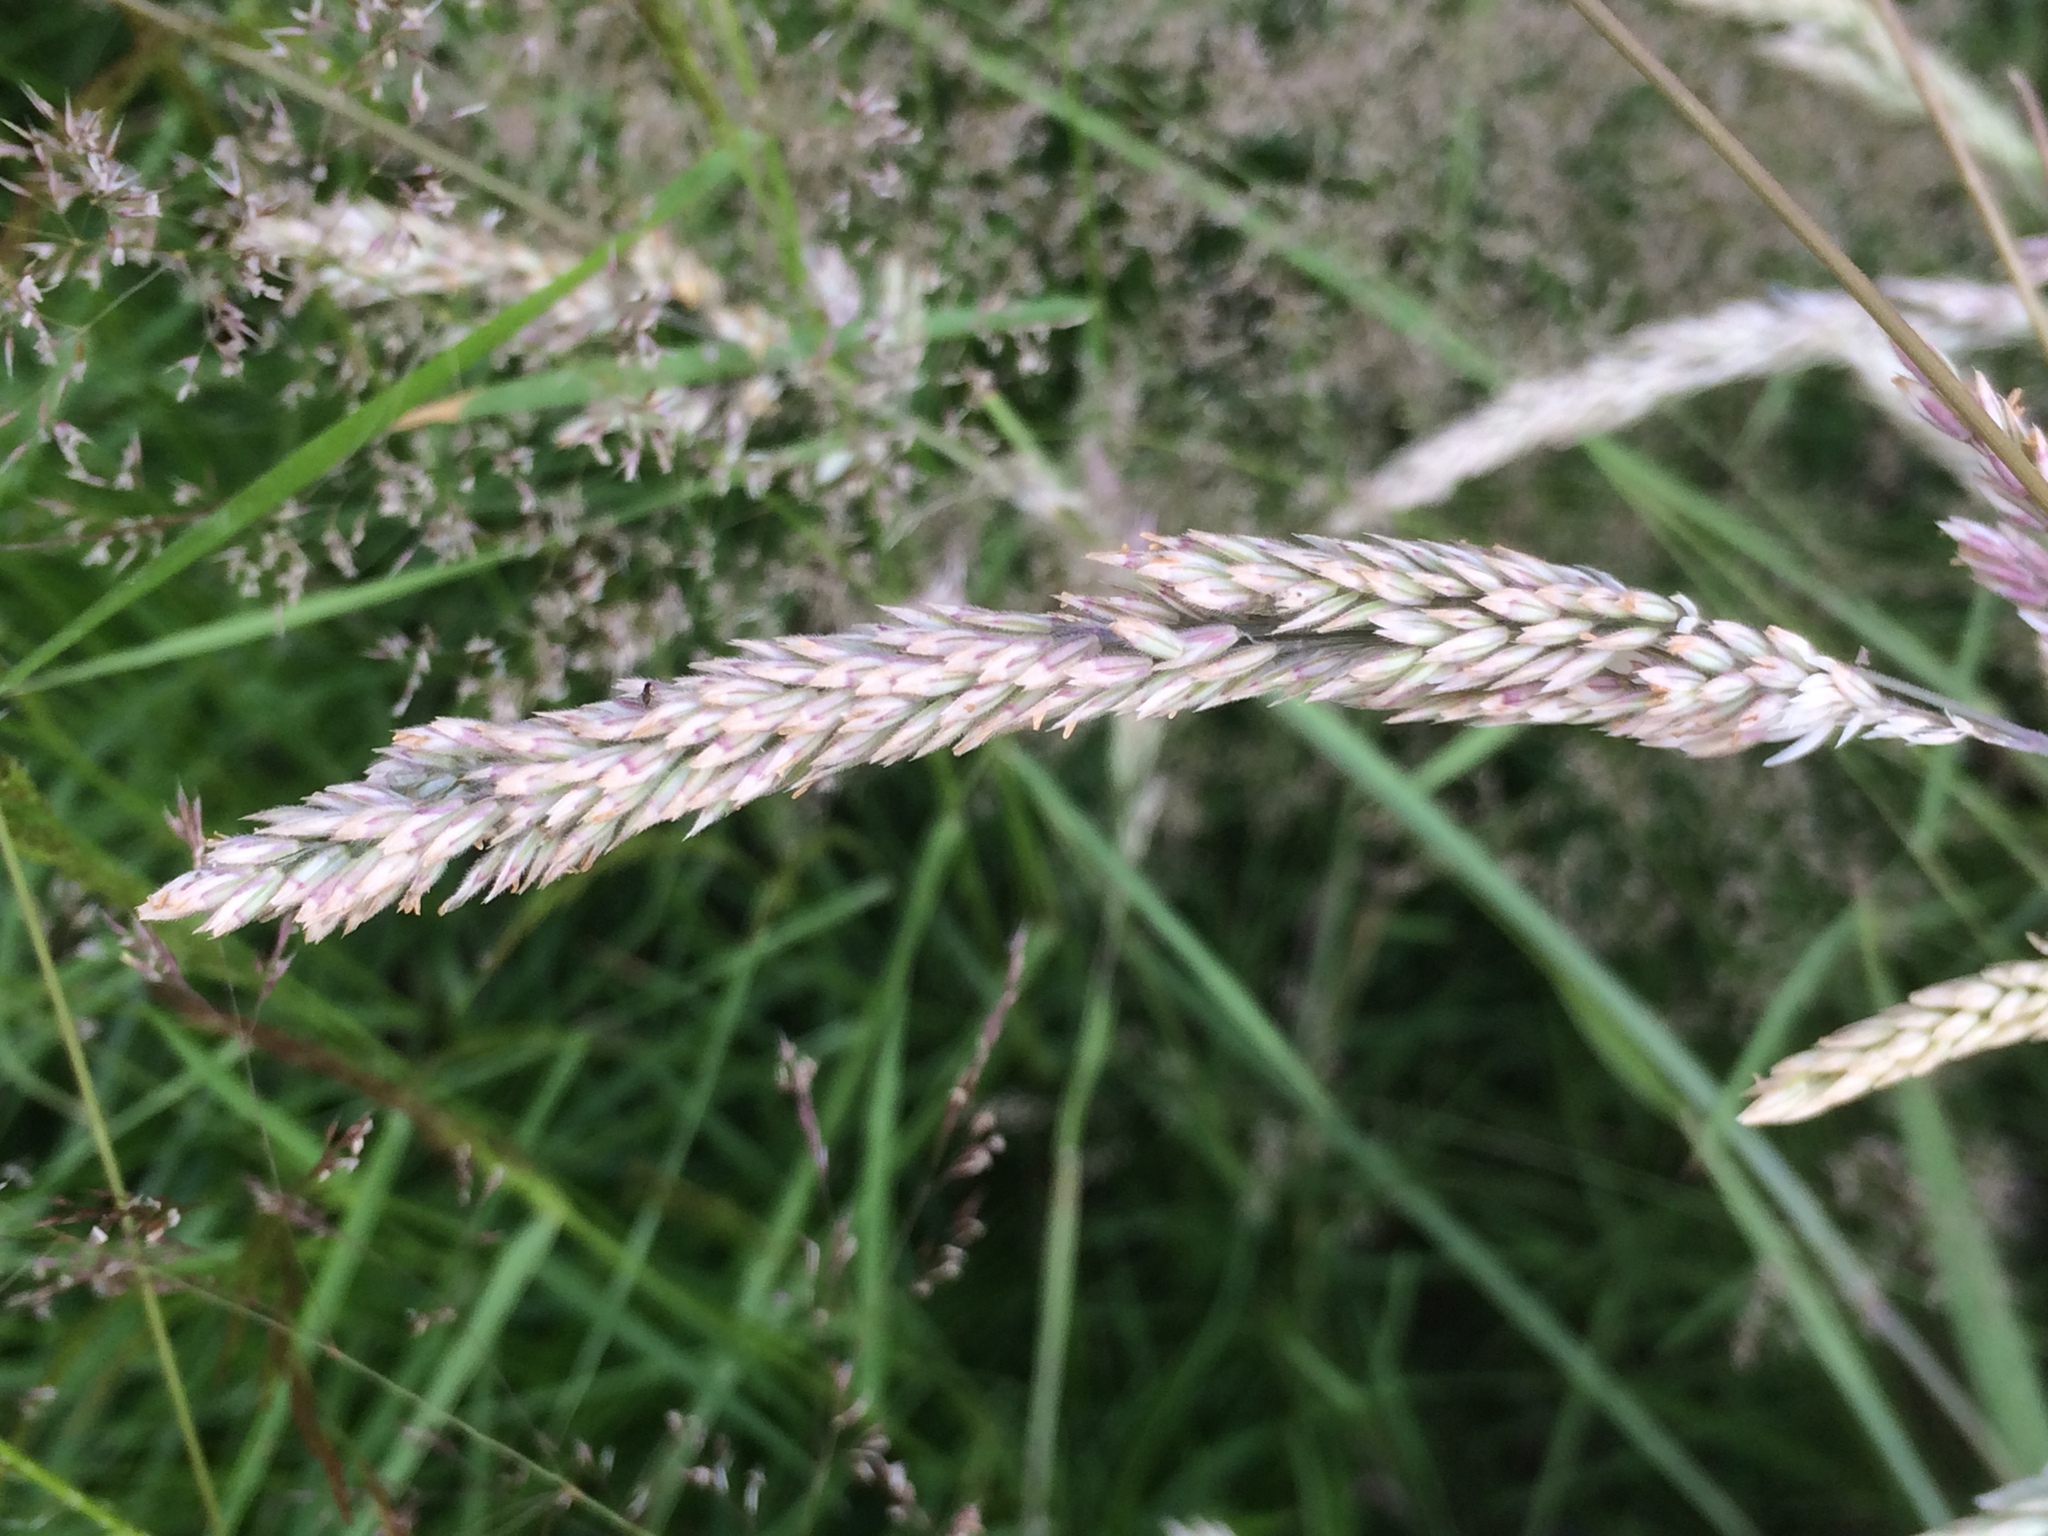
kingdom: Plantae
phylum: Tracheophyta
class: Liliopsida
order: Poales
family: Poaceae
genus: Holcus
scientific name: Holcus lanatus
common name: Yorkshire-fog
